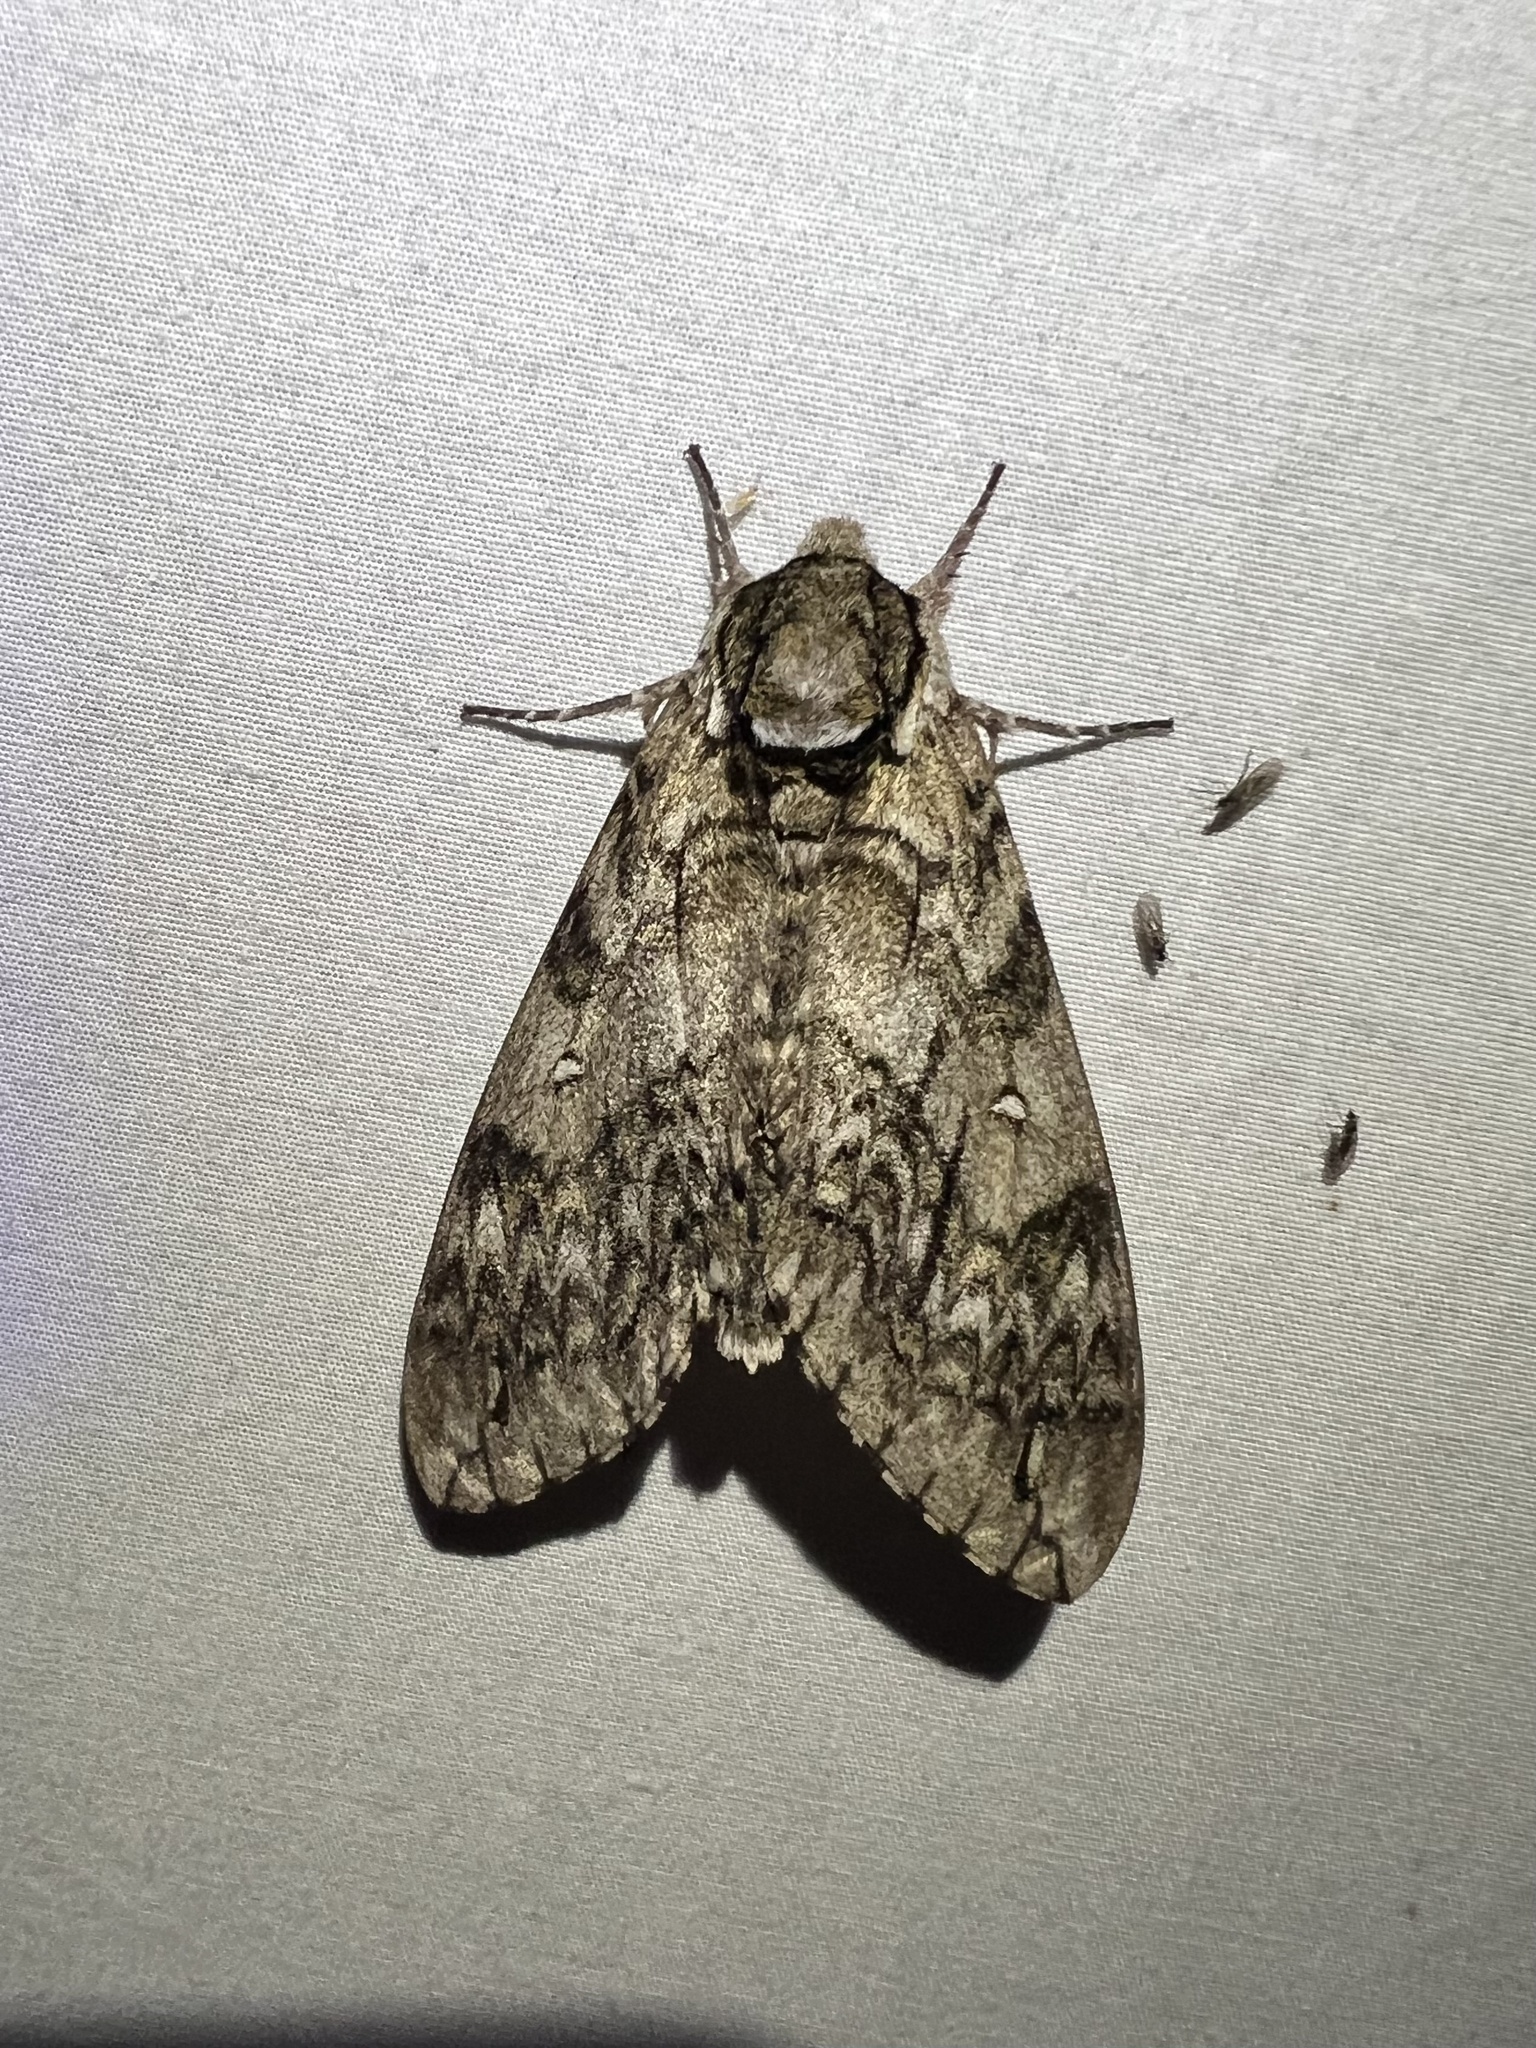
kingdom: Animalia
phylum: Arthropoda
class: Insecta
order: Lepidoptera
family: Sphingidae
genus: Ceratomia
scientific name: Ceratomia undulosa
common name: Waved sphinx
